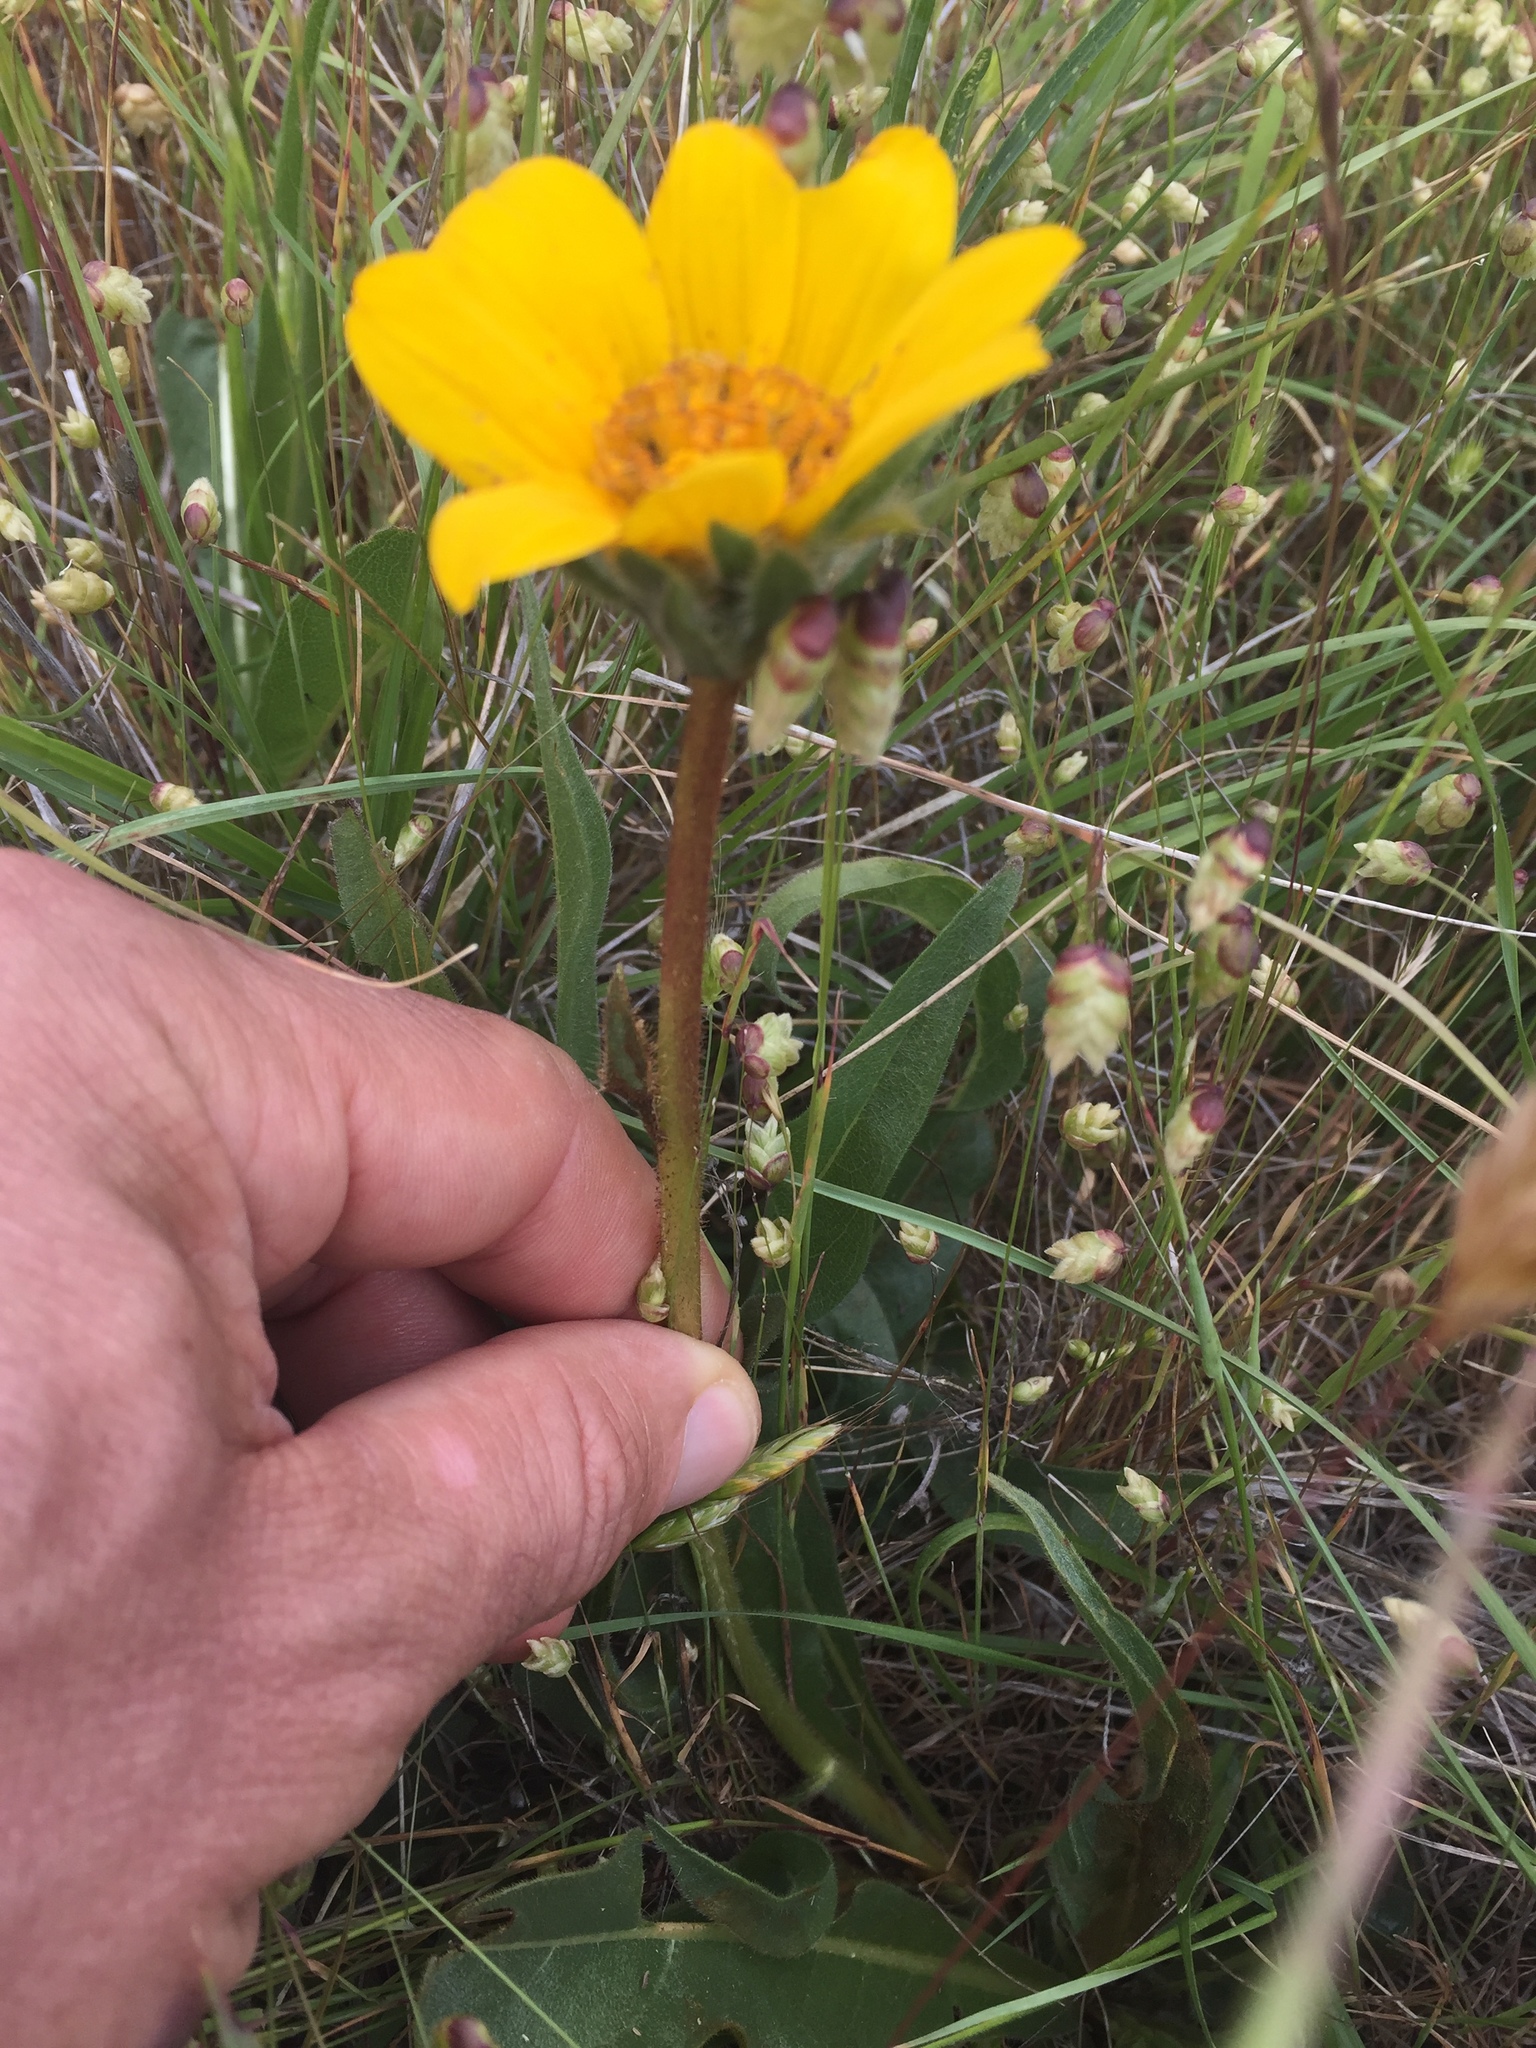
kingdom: Plantae
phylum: Tracheophyta
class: Magnoliopsida
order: Asterales
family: Asteraceae
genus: Wyethia
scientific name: Wyethia angustifolia
